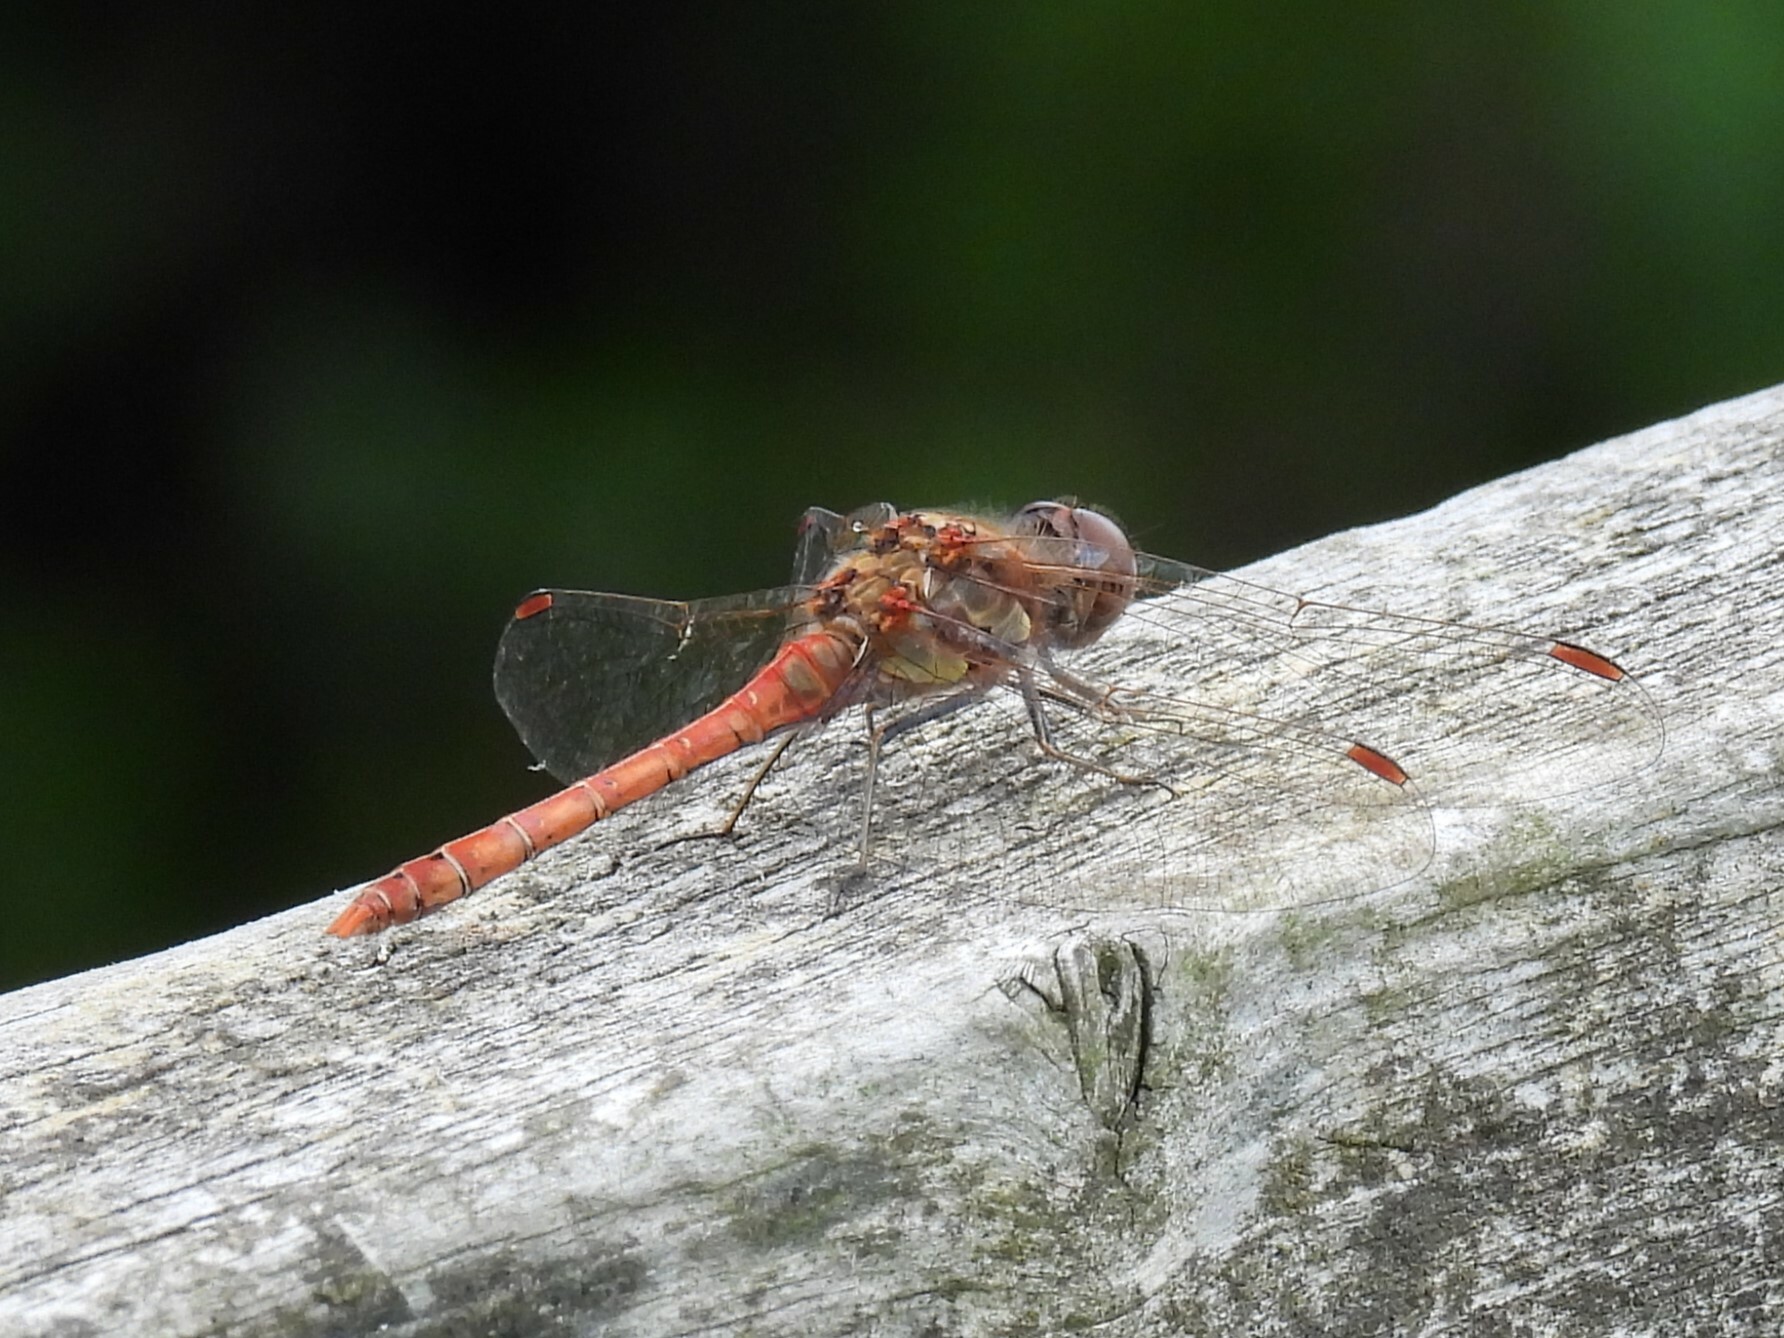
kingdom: Animalia
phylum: Arthropoda
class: Insecta
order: Odonata
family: Libellulidae
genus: Sympetrum
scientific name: Sympetrum striolatum
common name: Common darter
